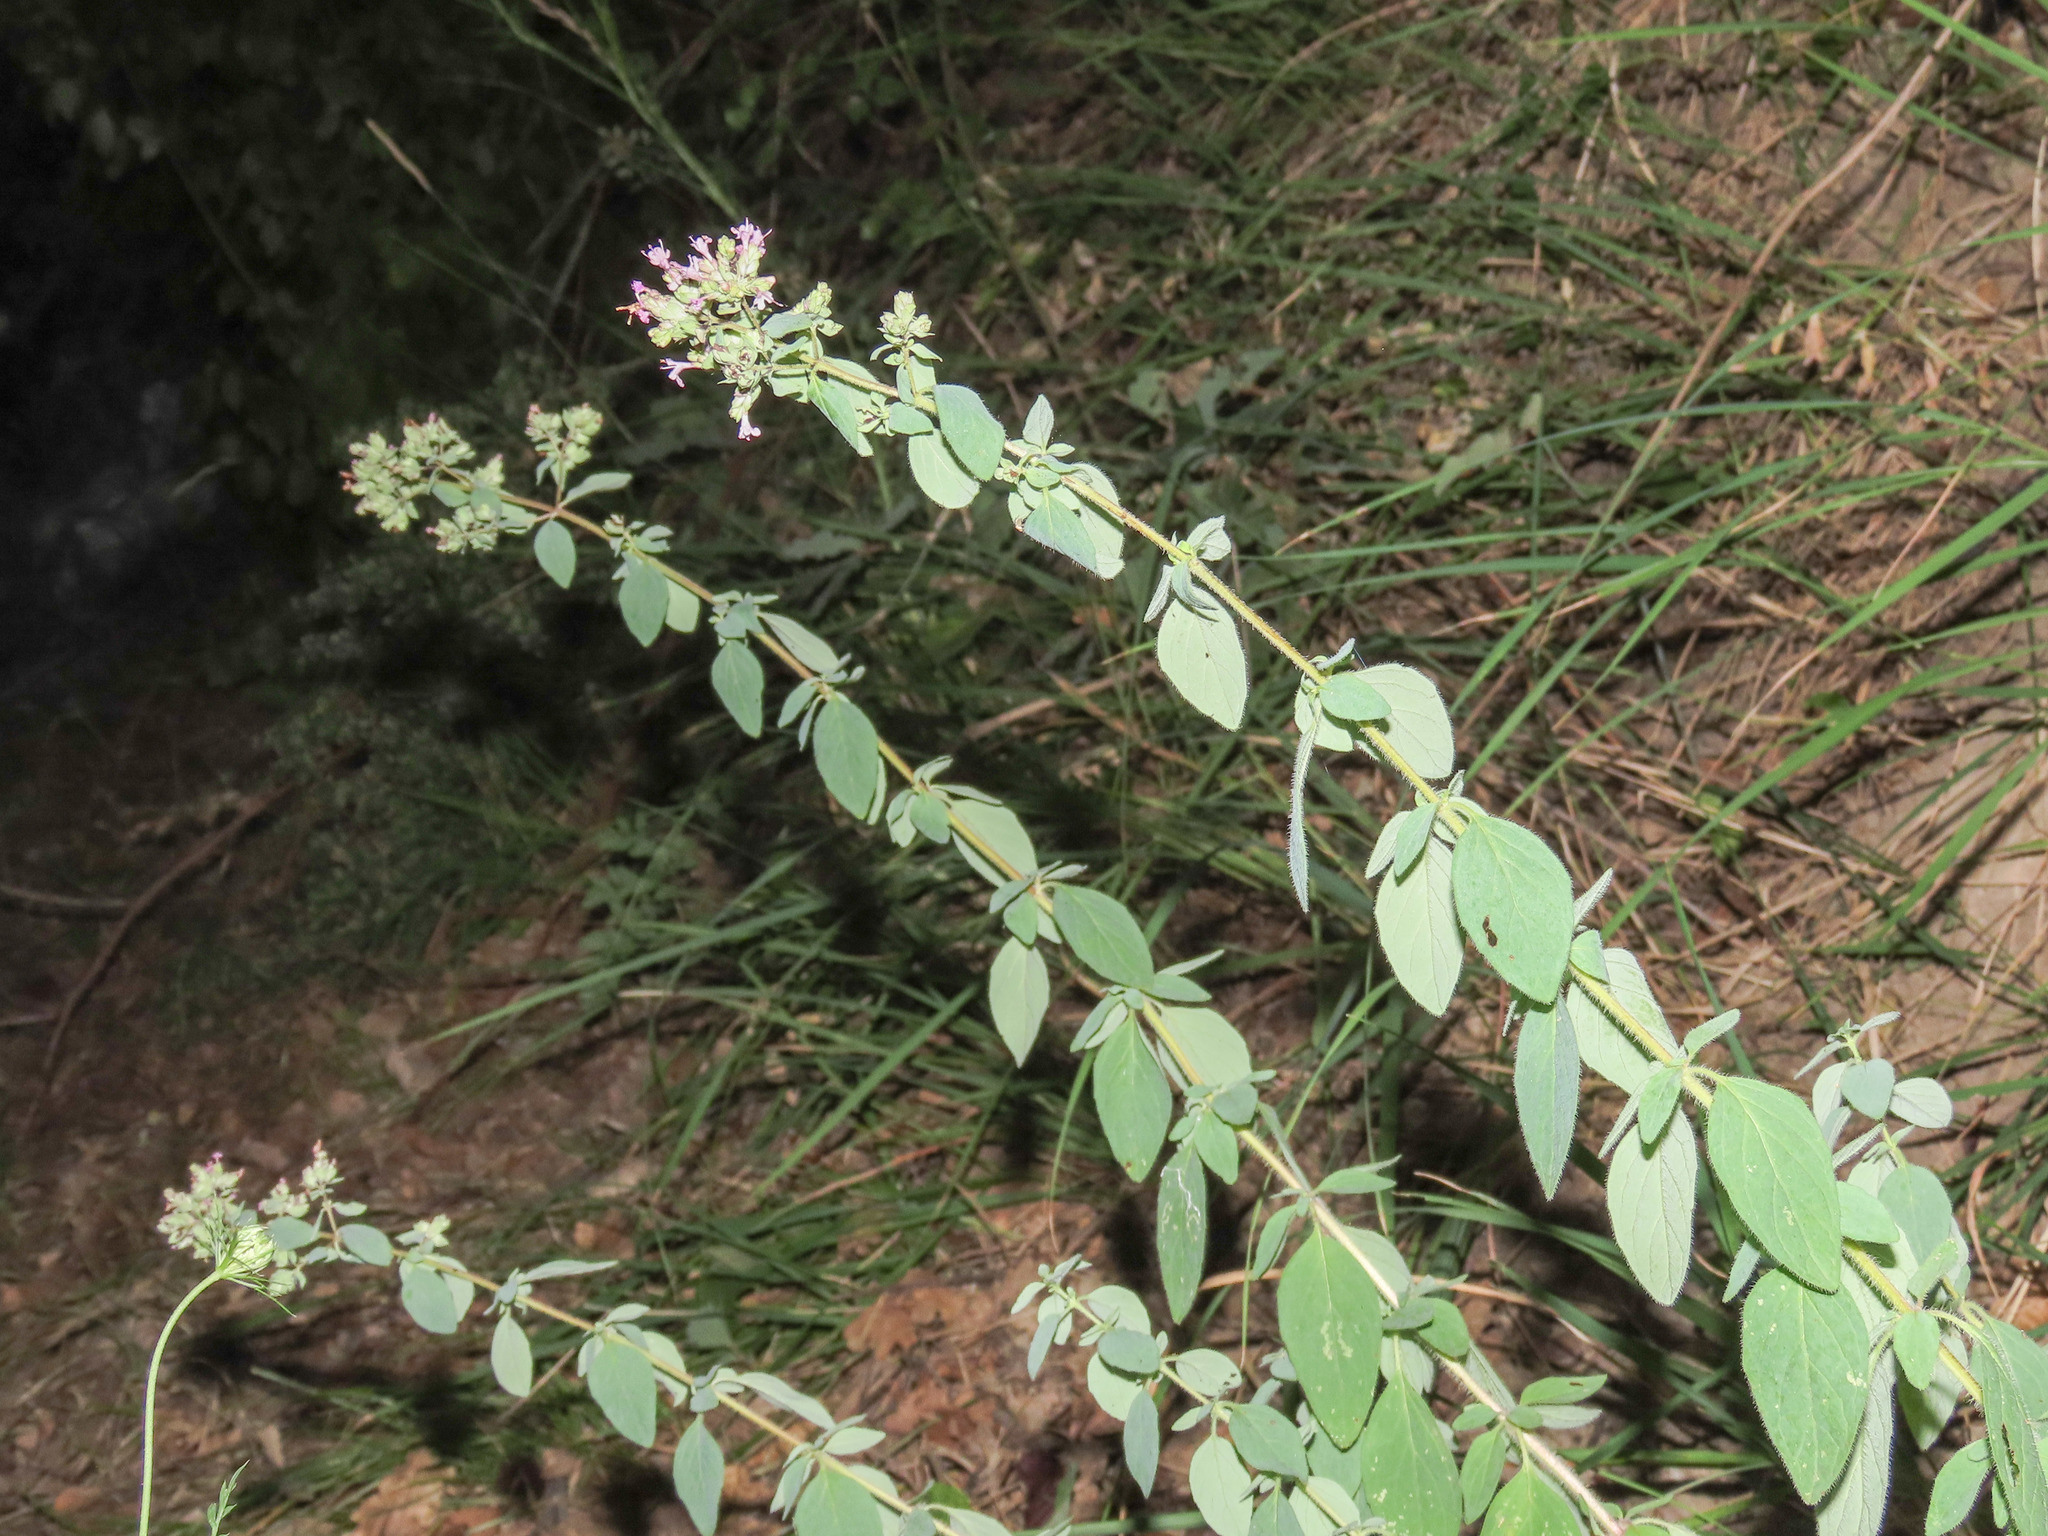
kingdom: Plantae
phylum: Tracheophyta
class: Magnoliopsida
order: Lamiales
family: Lamiaceae
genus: Origanum
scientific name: Origanum vulgare
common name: Wild marjoram
